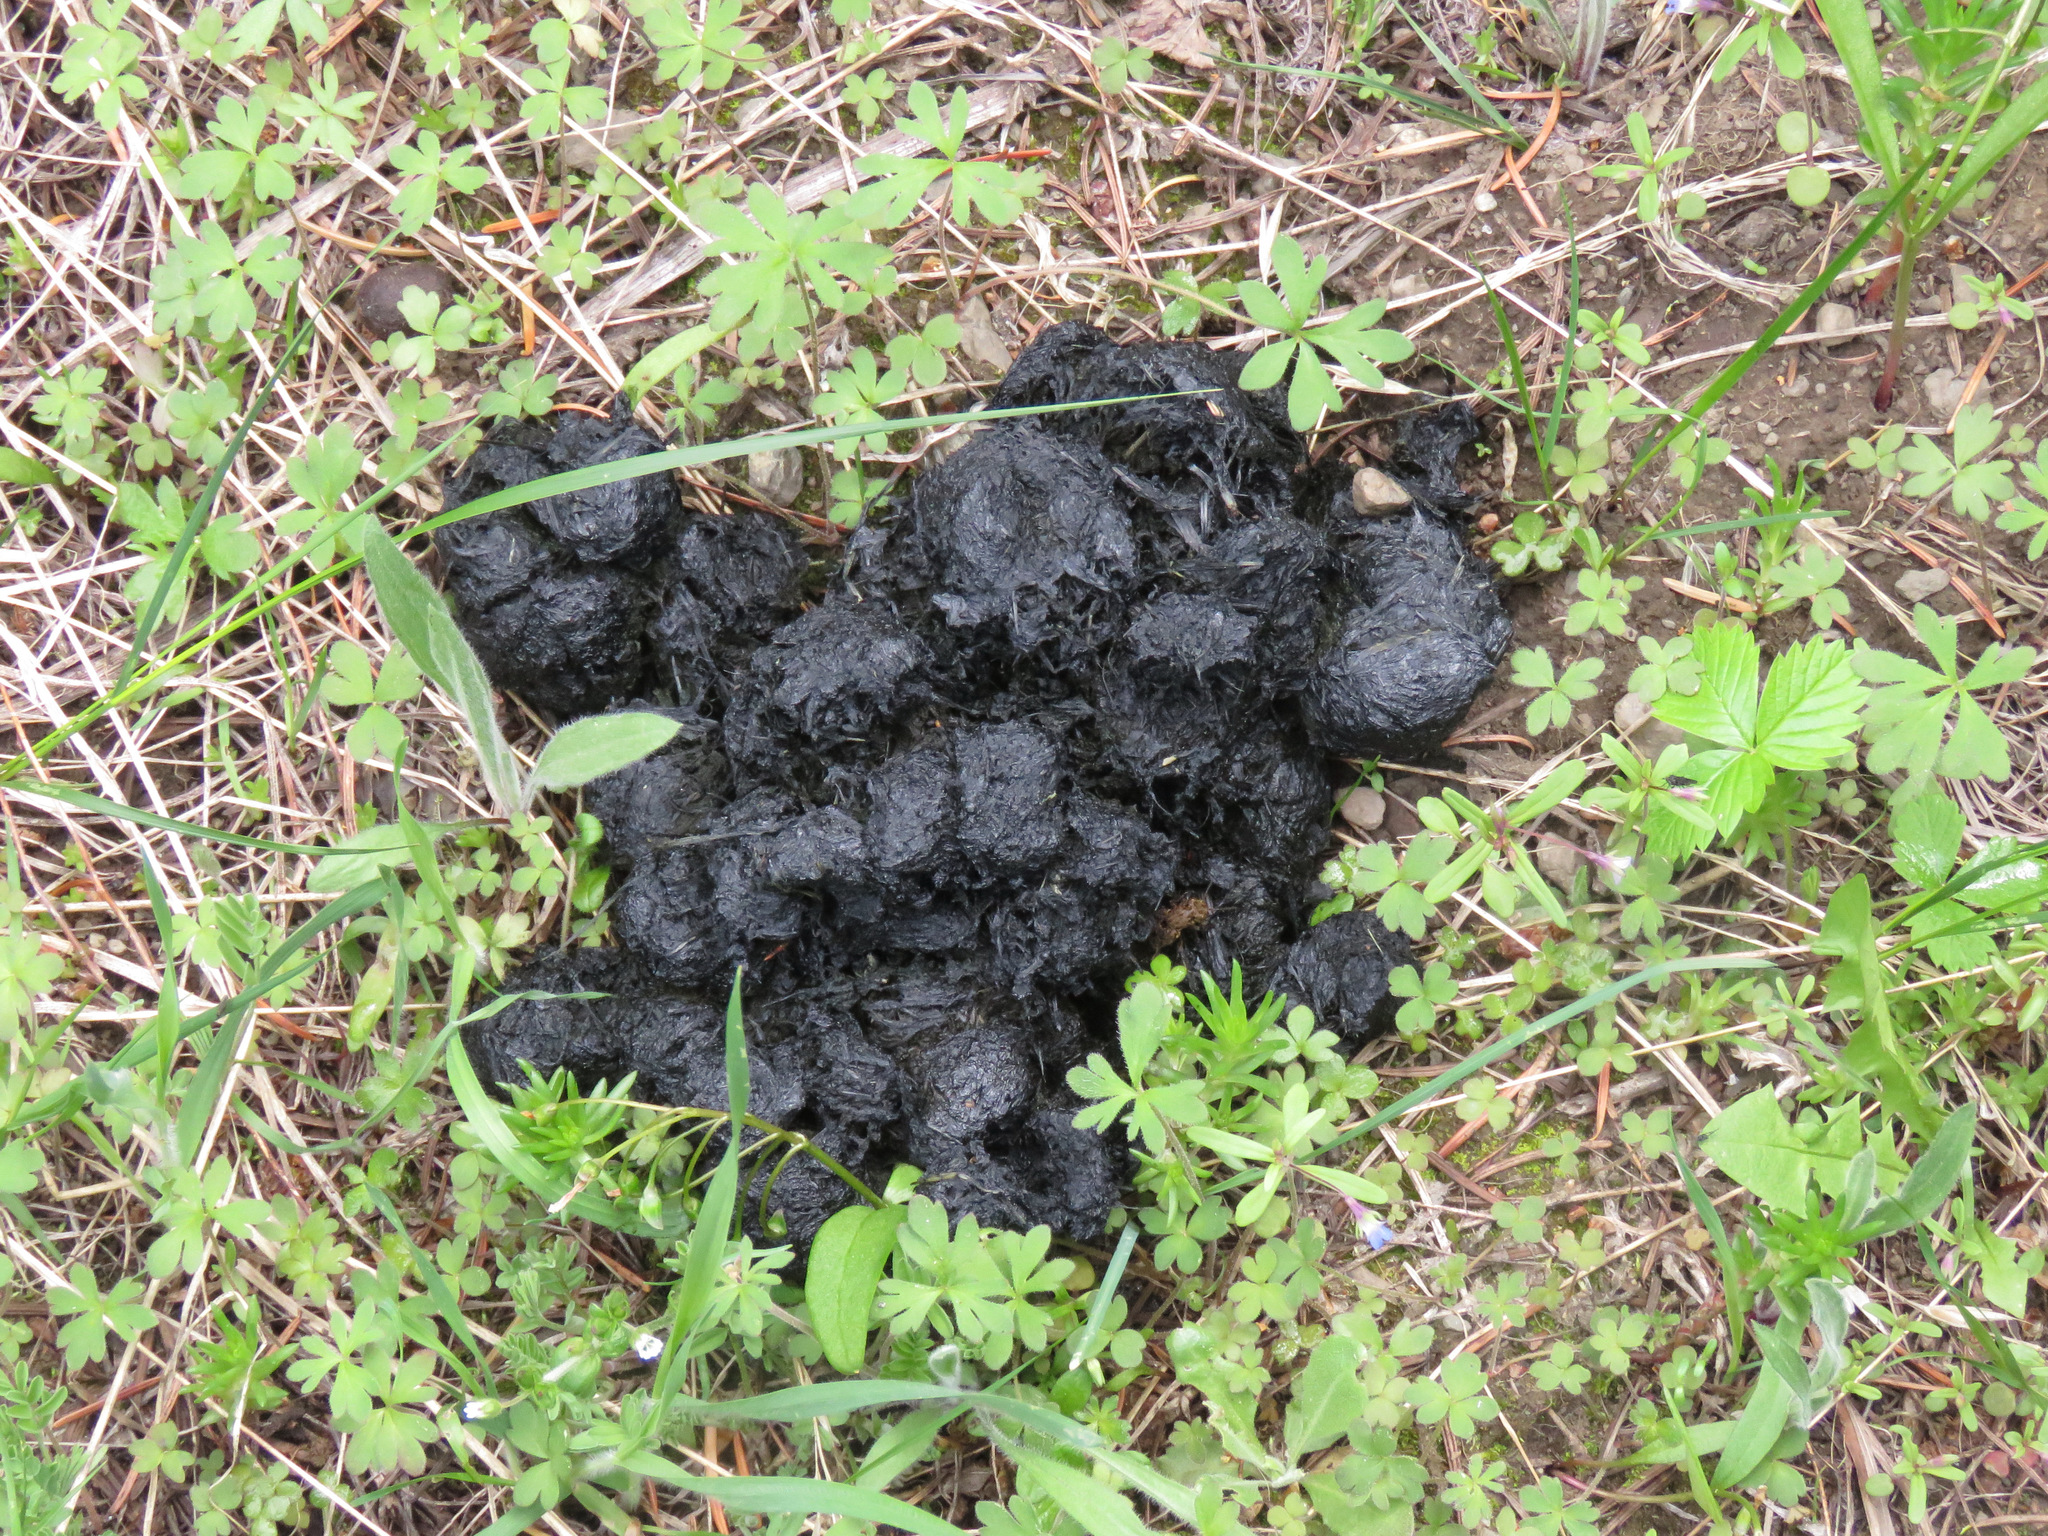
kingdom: Animalia
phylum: Chordata
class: Mammalia
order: Carnivora
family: Ursidae
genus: Ursus
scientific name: Ursus americanus
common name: American black bear
